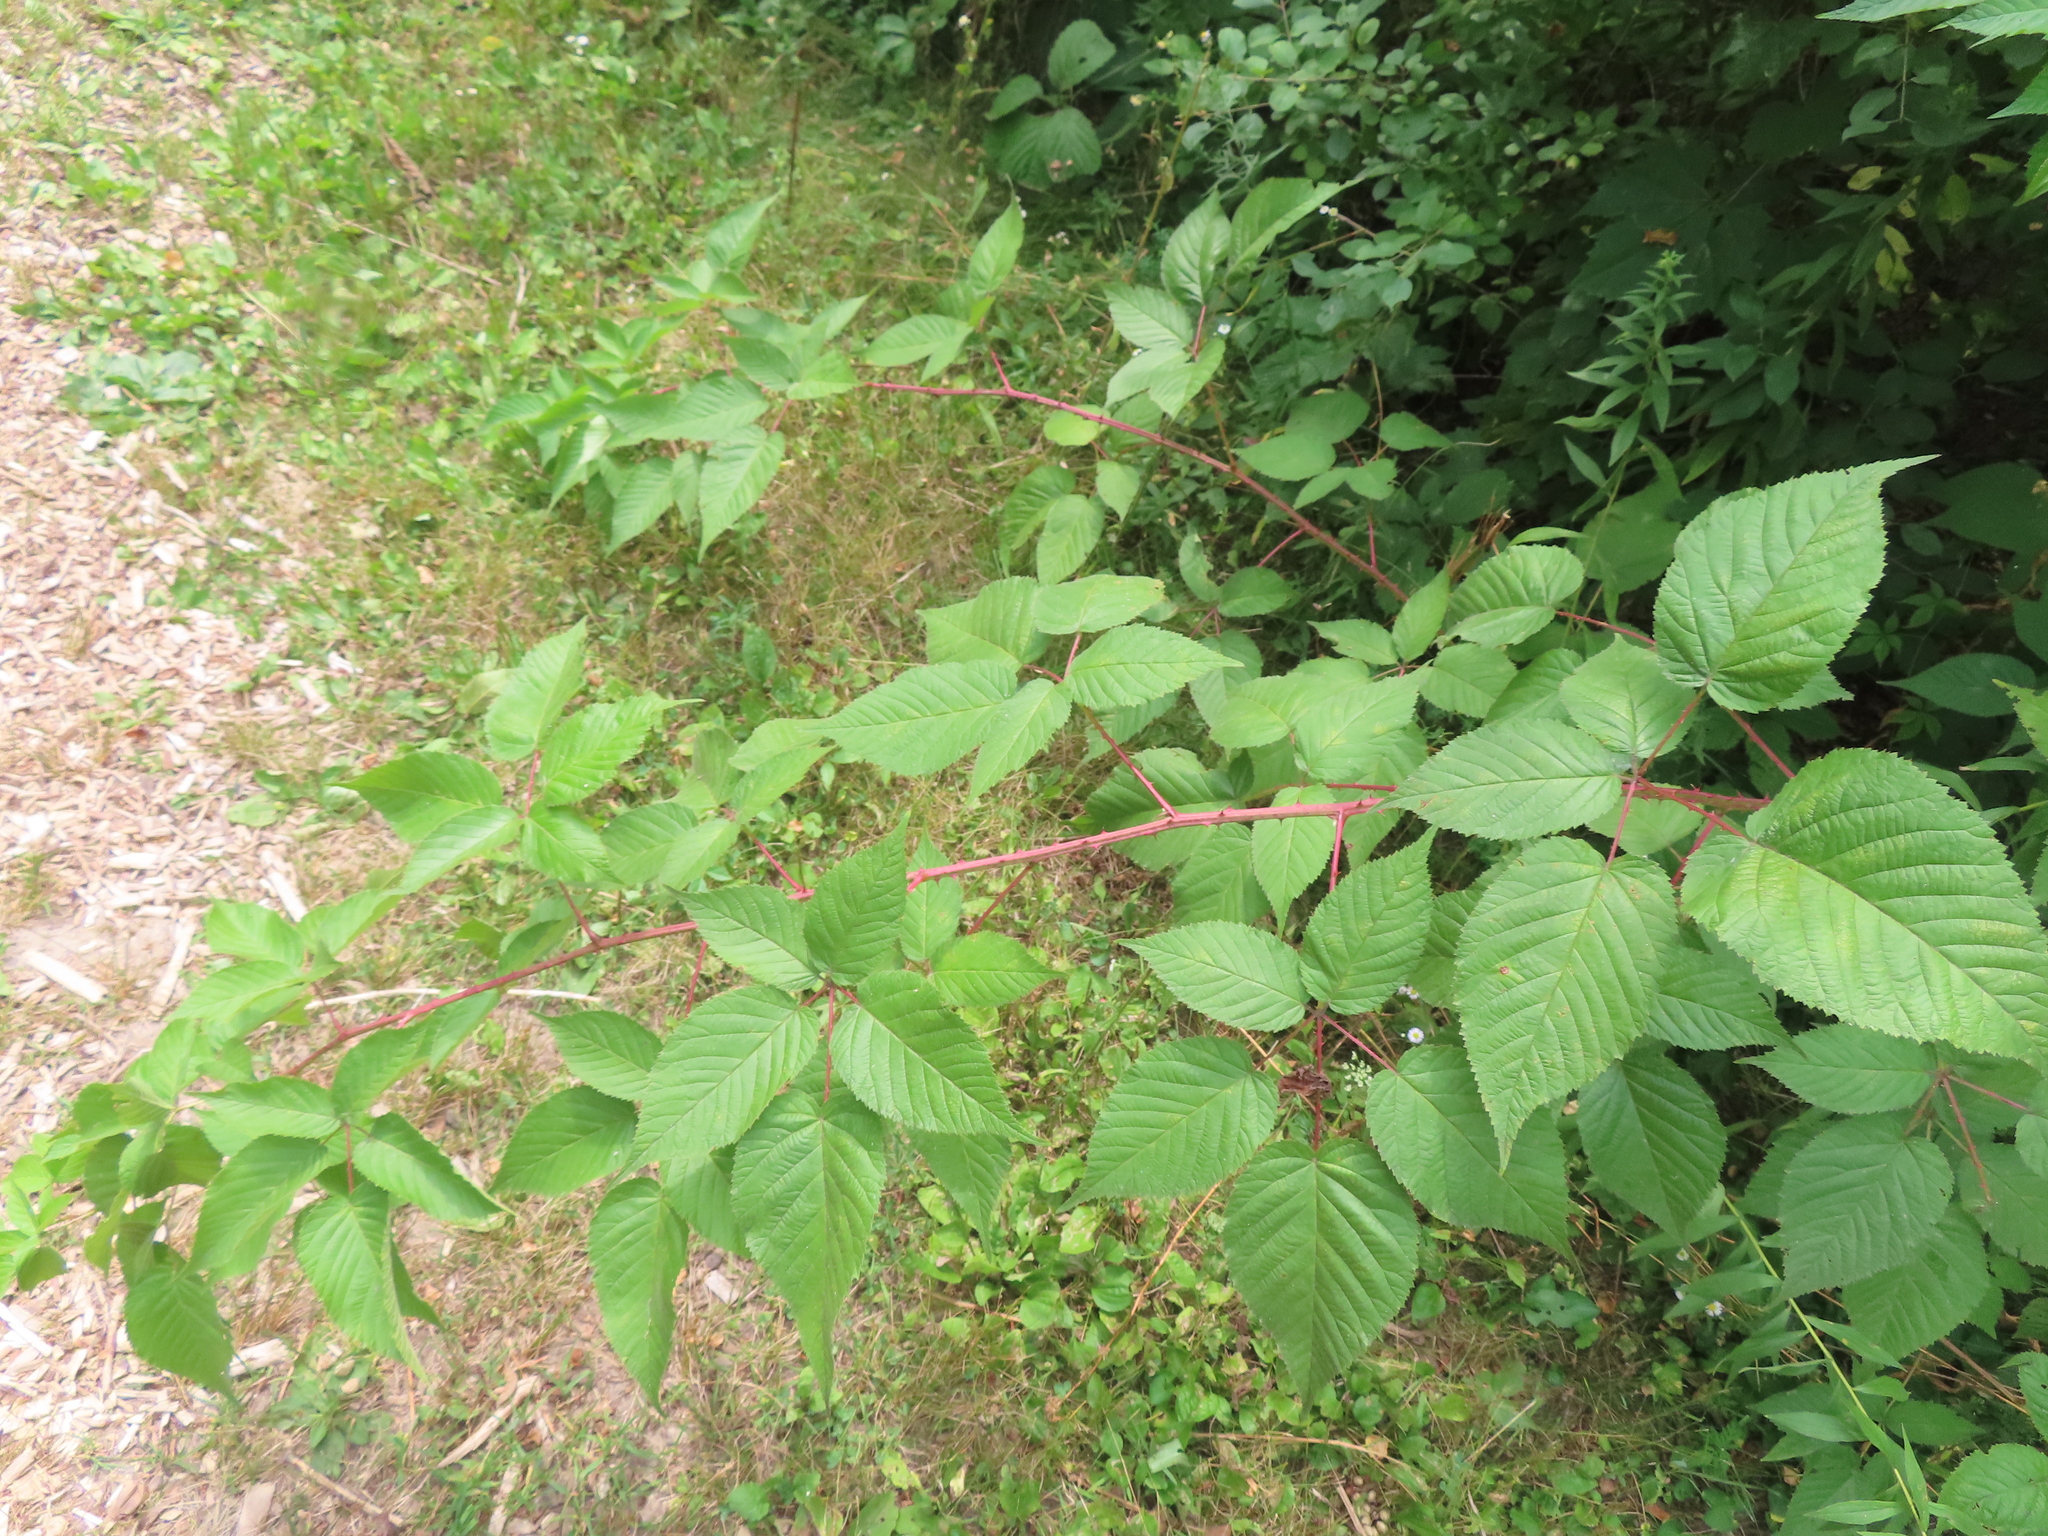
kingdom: Plantae
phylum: Tracheophyta
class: Magnoliopsida
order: Rosales
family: Rosaceae
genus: Rubus
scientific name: Rubus allegheniensis
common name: Allegheny blackberry
